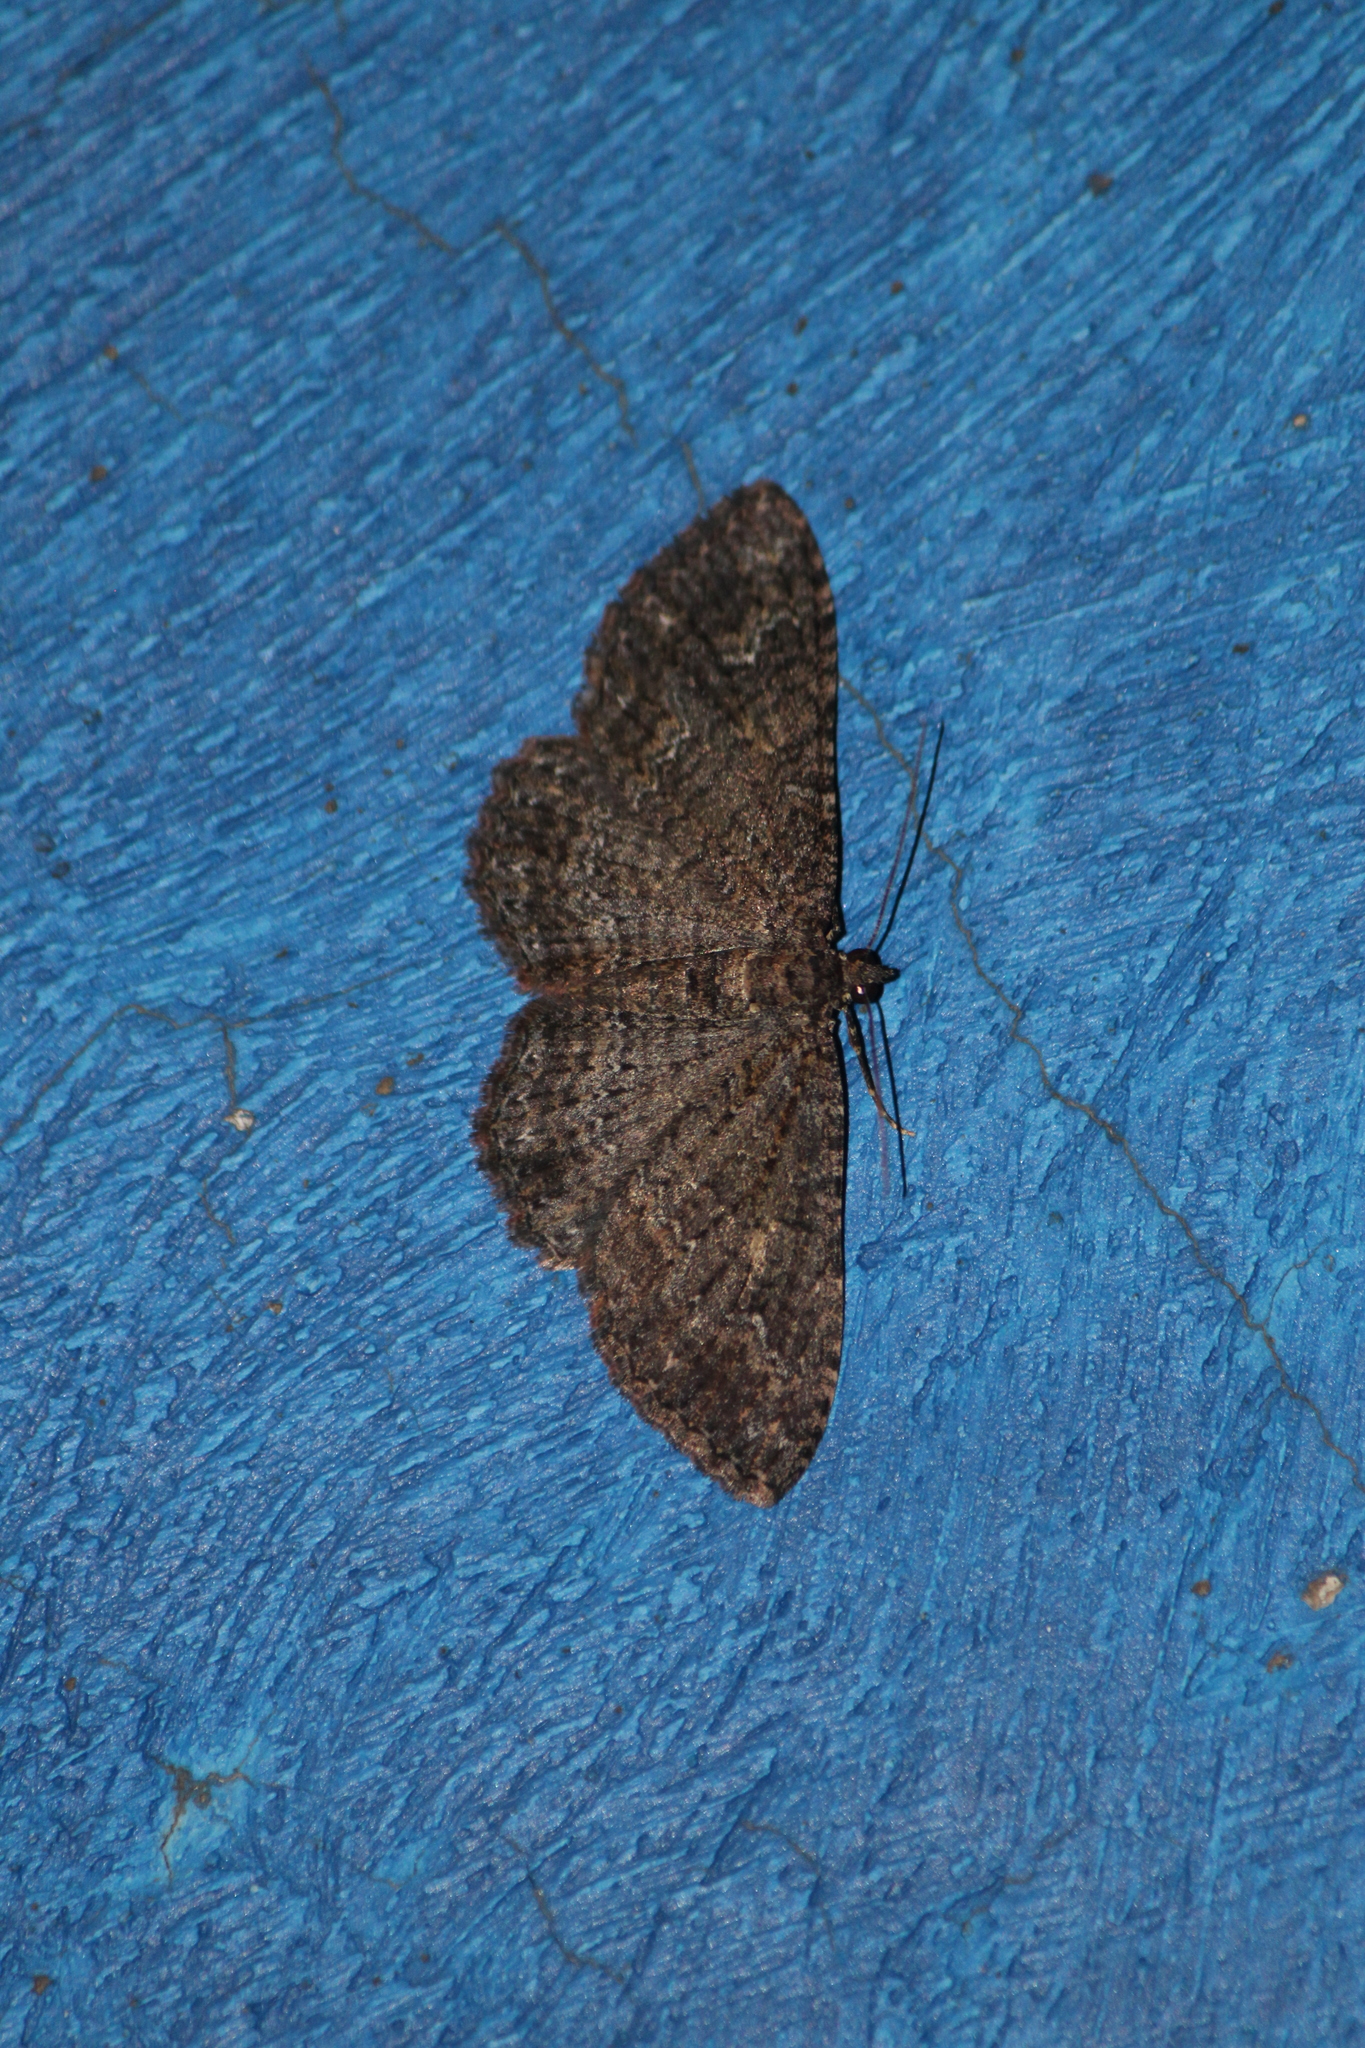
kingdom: Animalia
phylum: Arthropoda
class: Insecta
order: Lepidoptera
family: Geometridae
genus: Disclisioprocta
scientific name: Disclisioprocta stellata
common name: Somber carpet
